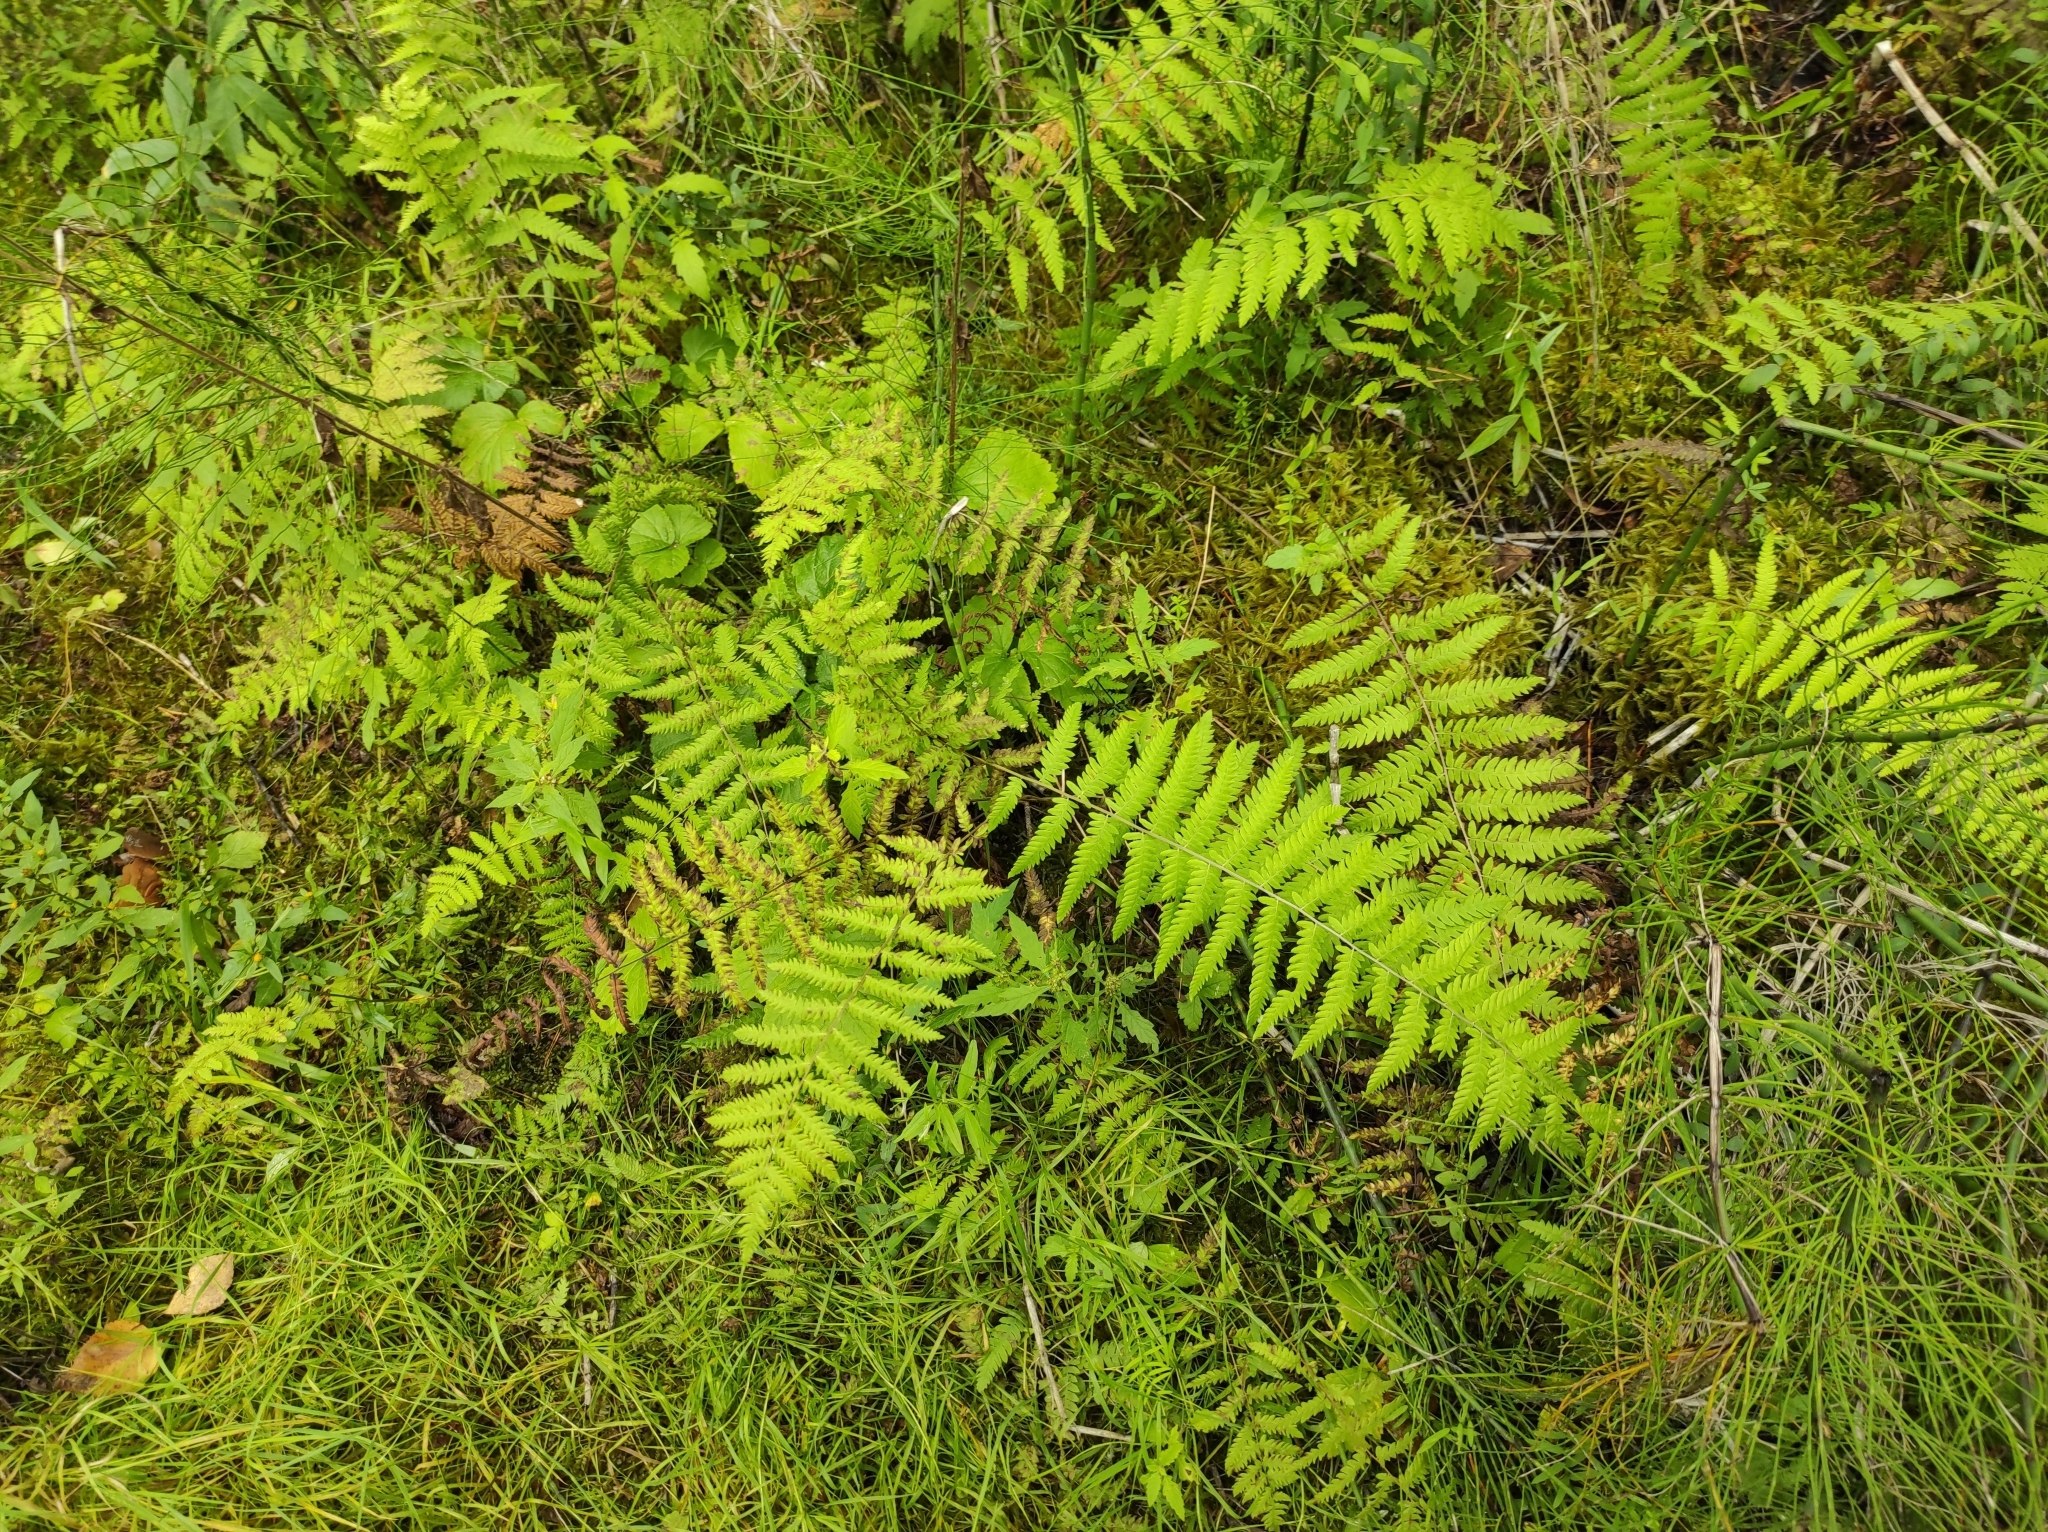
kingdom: Plantae
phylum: Tracheophyta
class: Polypodiopsida
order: Polypodiales
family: Thelypteridaceae
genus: Thelypteris
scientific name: Thelypteris palustris
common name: Marsh fern
